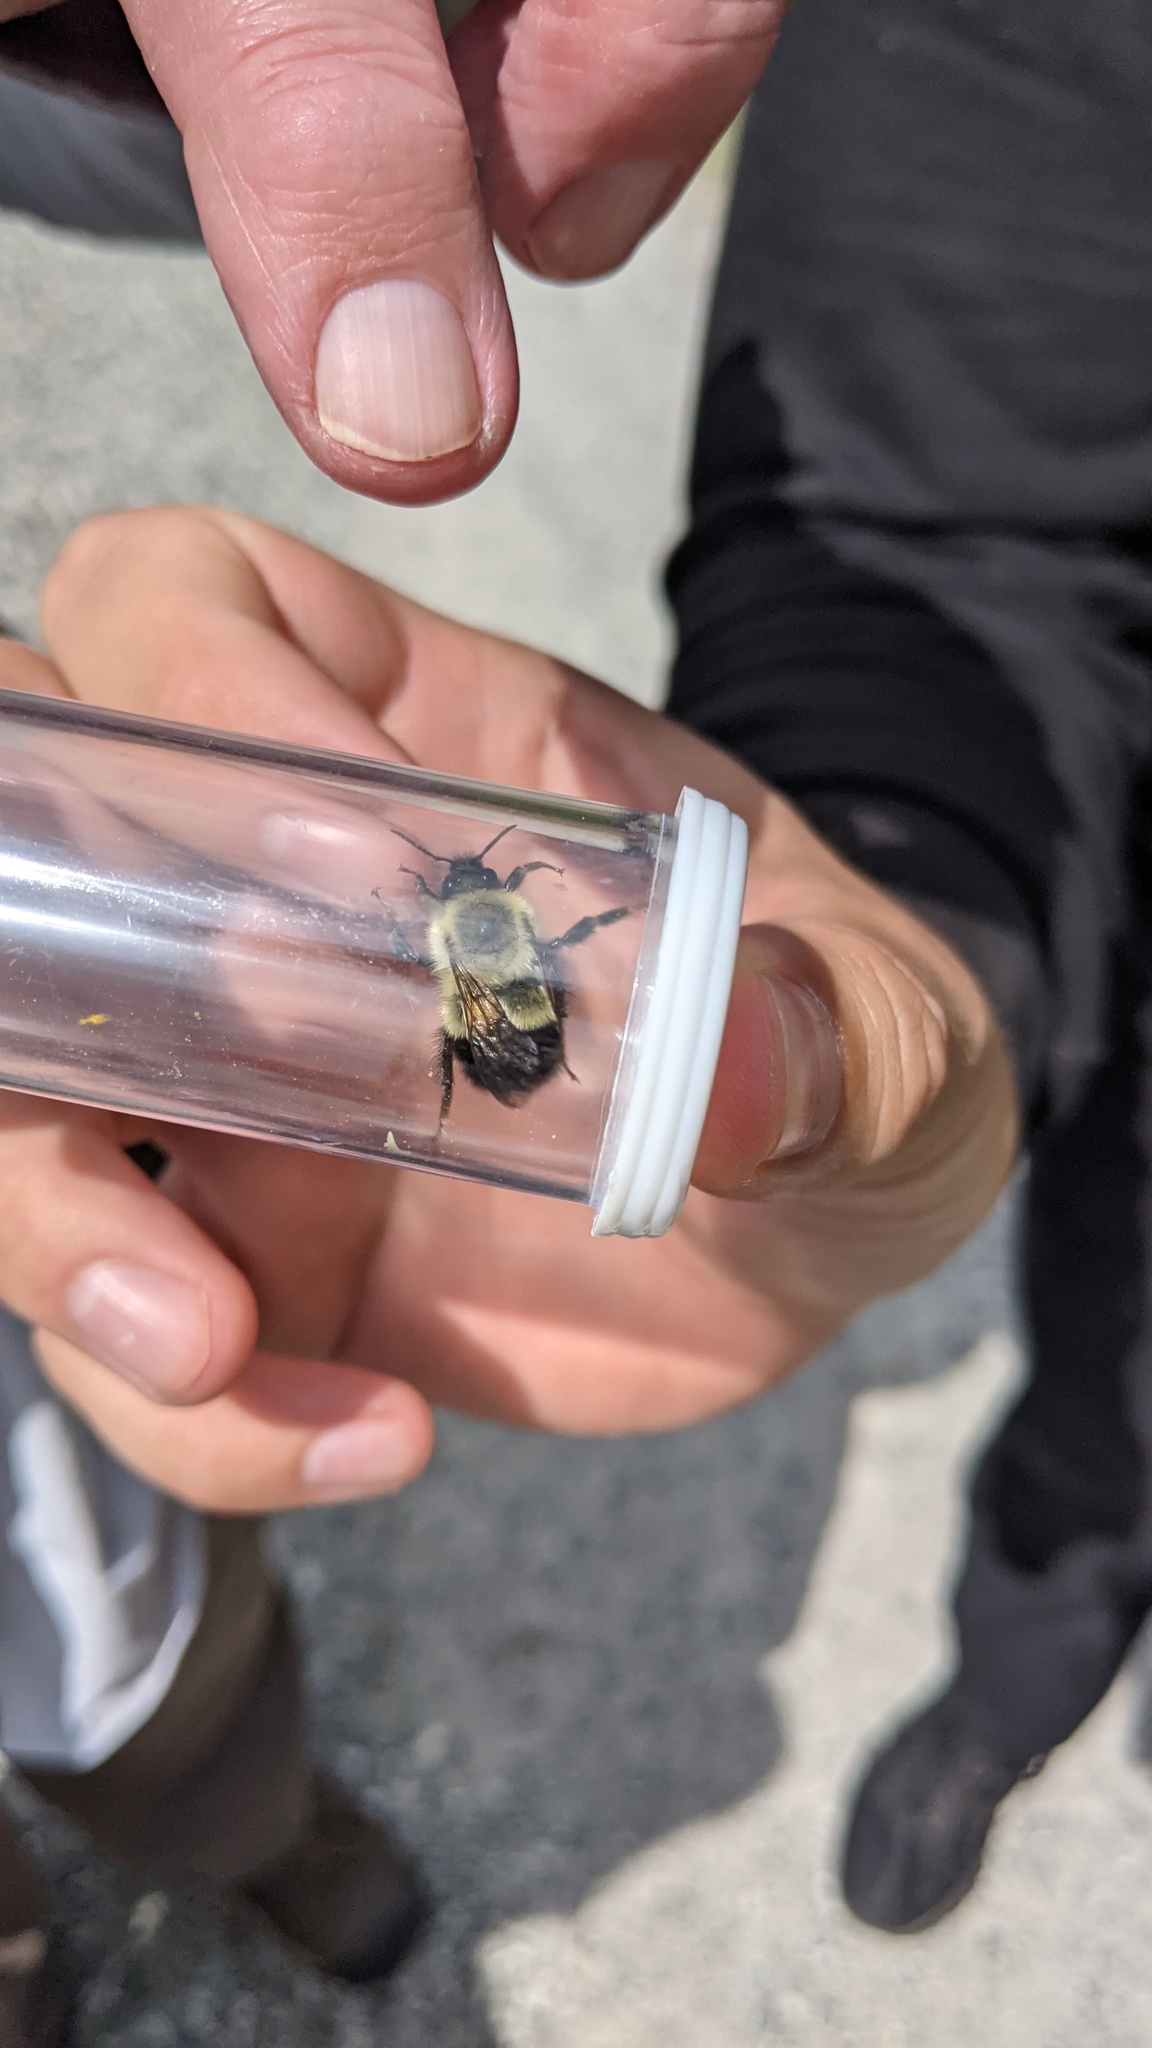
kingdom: Animalia
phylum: Arthropoda
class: Insecta
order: Hymenoptera
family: Apidae
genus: Pyrobombus
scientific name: Pyrobombus
